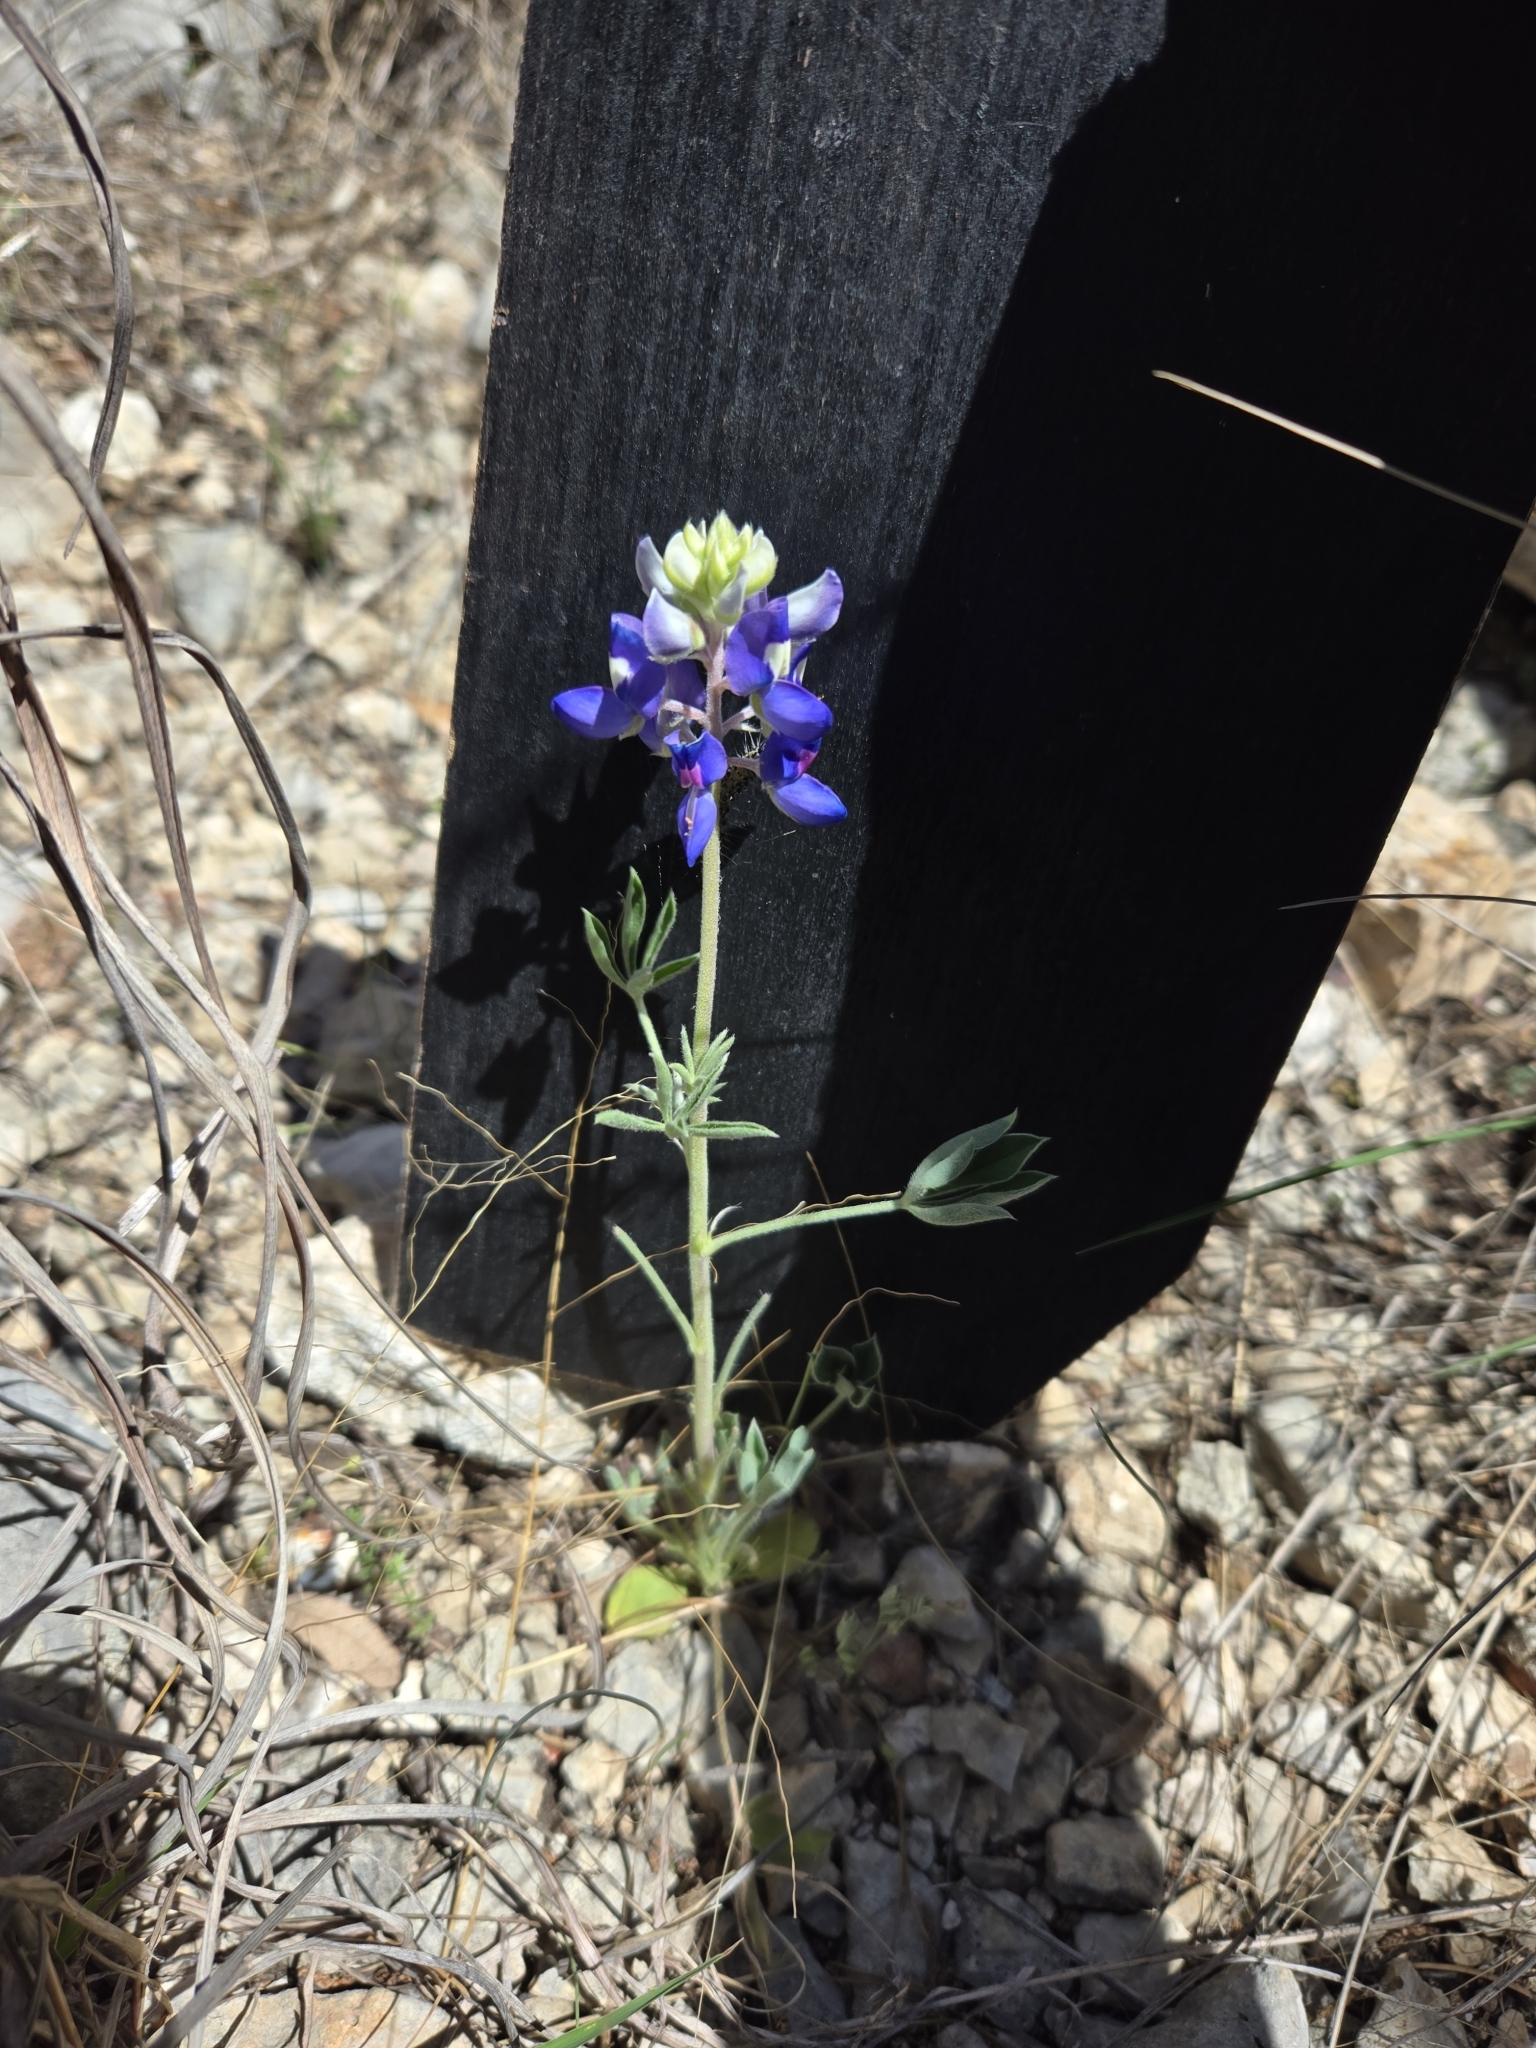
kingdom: Plantae
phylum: Tracheophyta
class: Magnoliopsida
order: Fabales
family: Fabaceae
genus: Lupinus
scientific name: Lupinus texensis
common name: Texas bluebonnet
